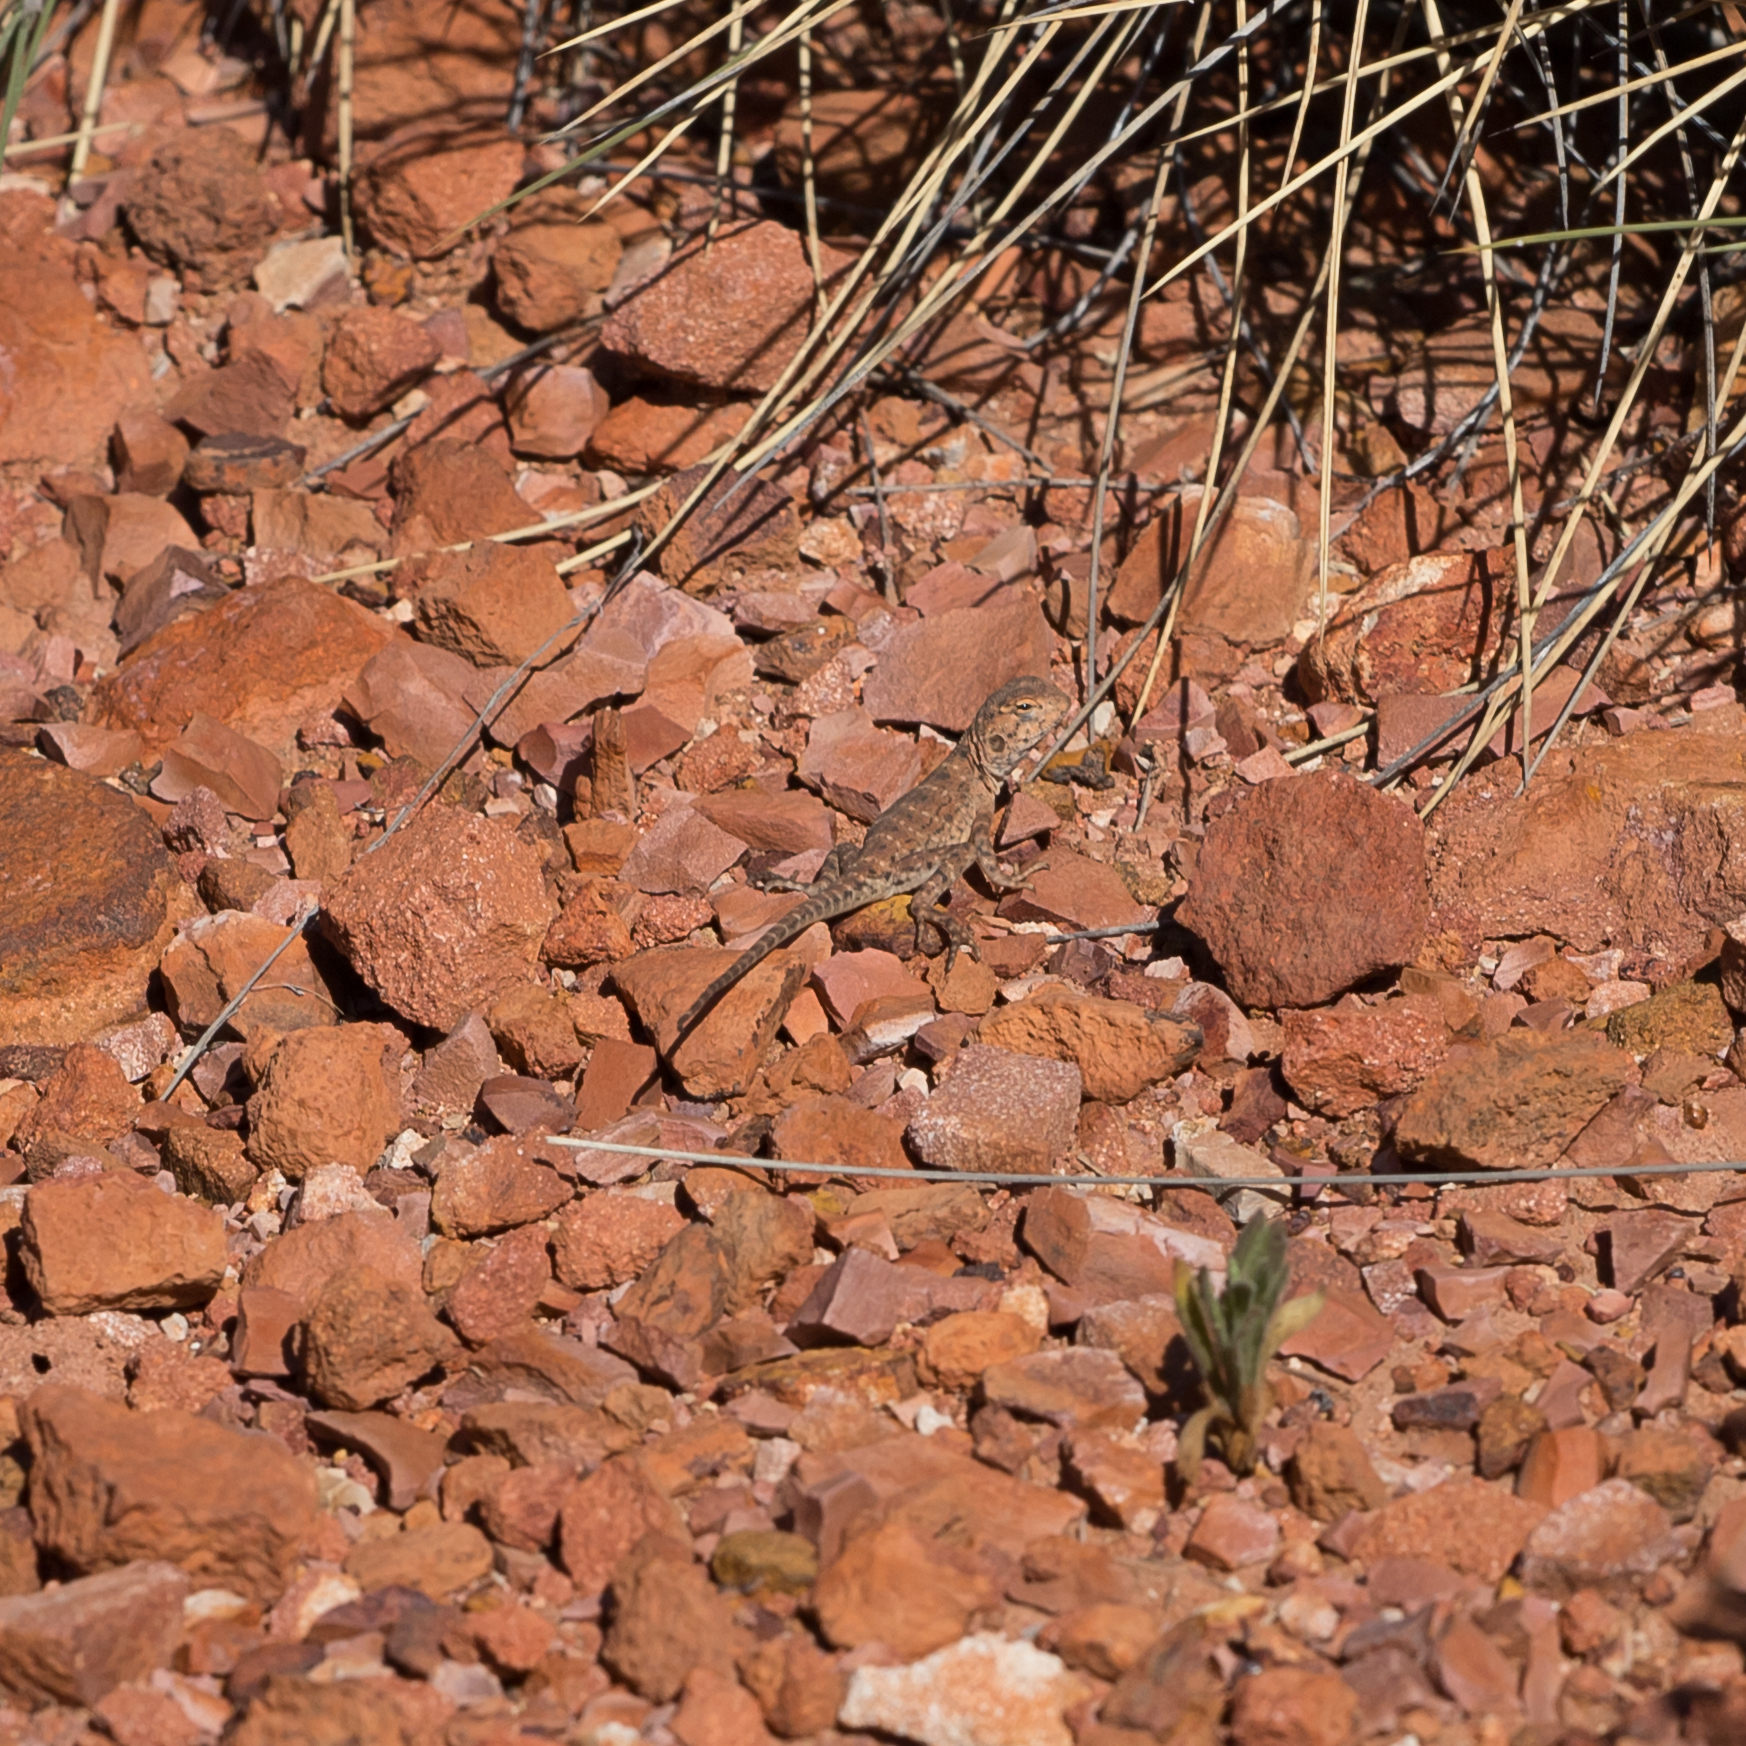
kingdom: Animalia
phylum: Chordata
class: Squamata
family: Agamidae
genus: Ctenophorus
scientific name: Ctenophorus slateri
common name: Slater’s dragon
